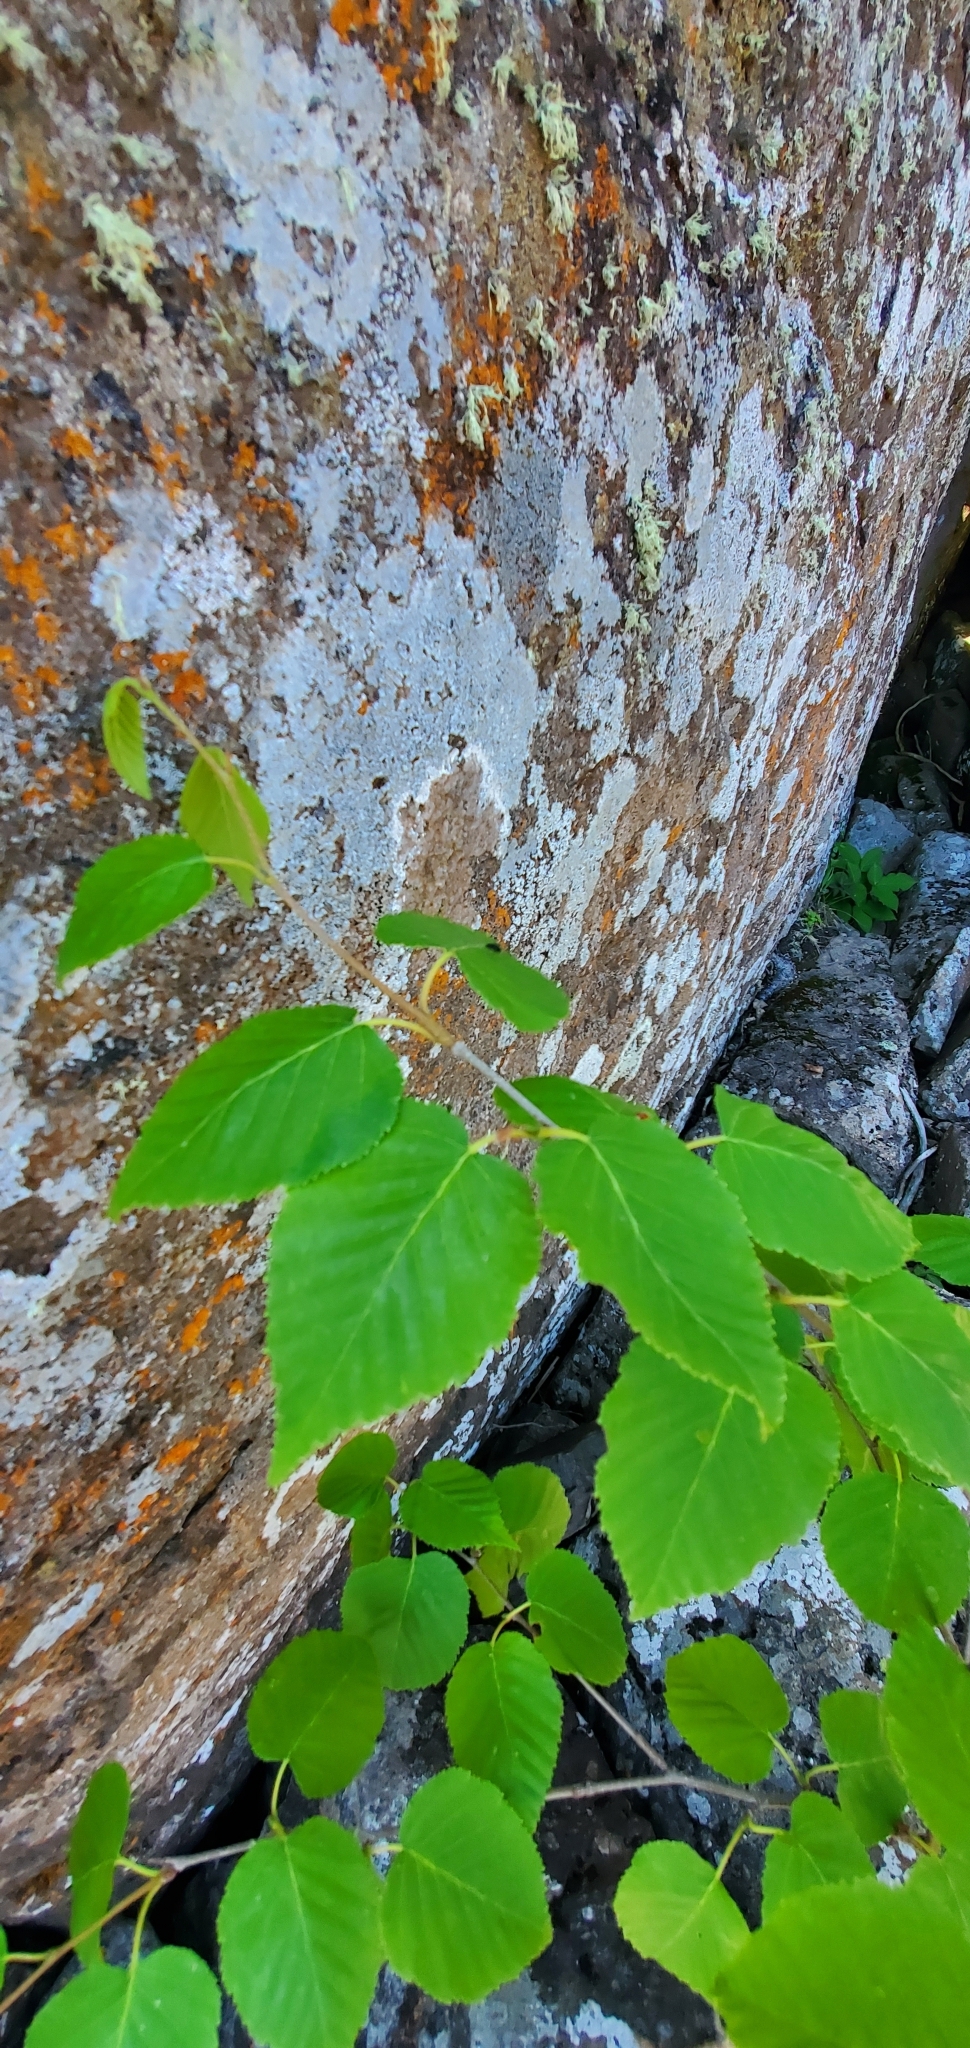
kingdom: Plantae
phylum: Tracheophyta
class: Magnoliopsida
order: Fagales
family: Betulaceae
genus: Betula
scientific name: Betula cordifolia
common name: Mountain white birch
